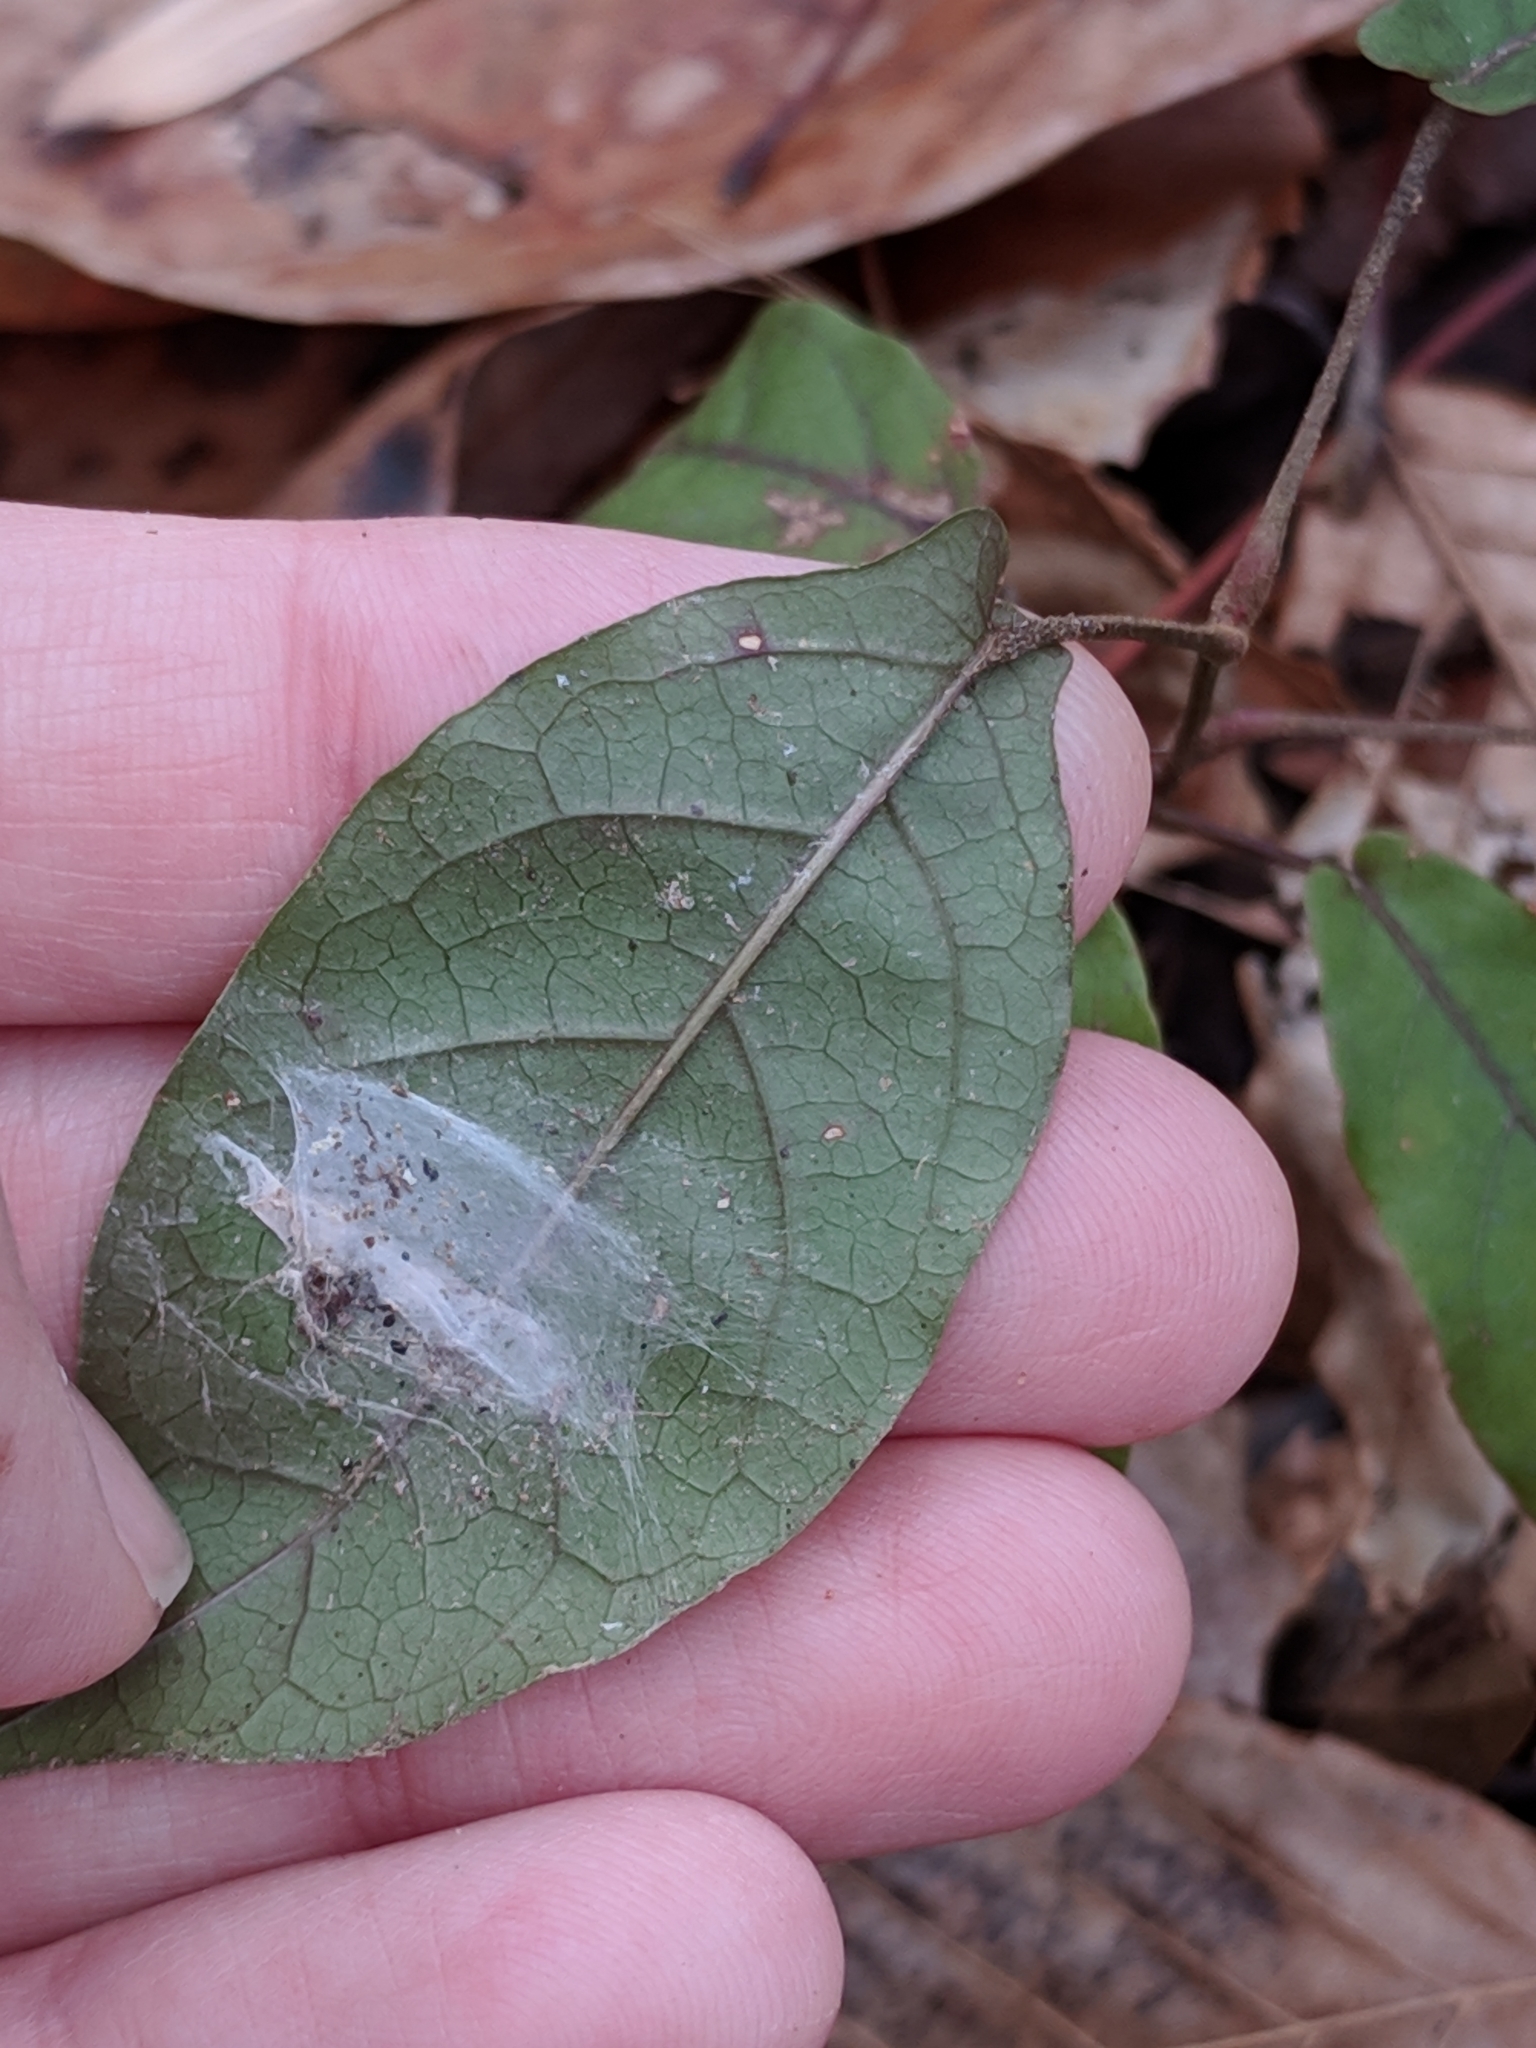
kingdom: Plantae
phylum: Tracheophyta
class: Magnoliopsida
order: Lamiales
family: Bignoniaceae
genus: Bignonia
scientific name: Bignonia capreolata
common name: Crossvine
